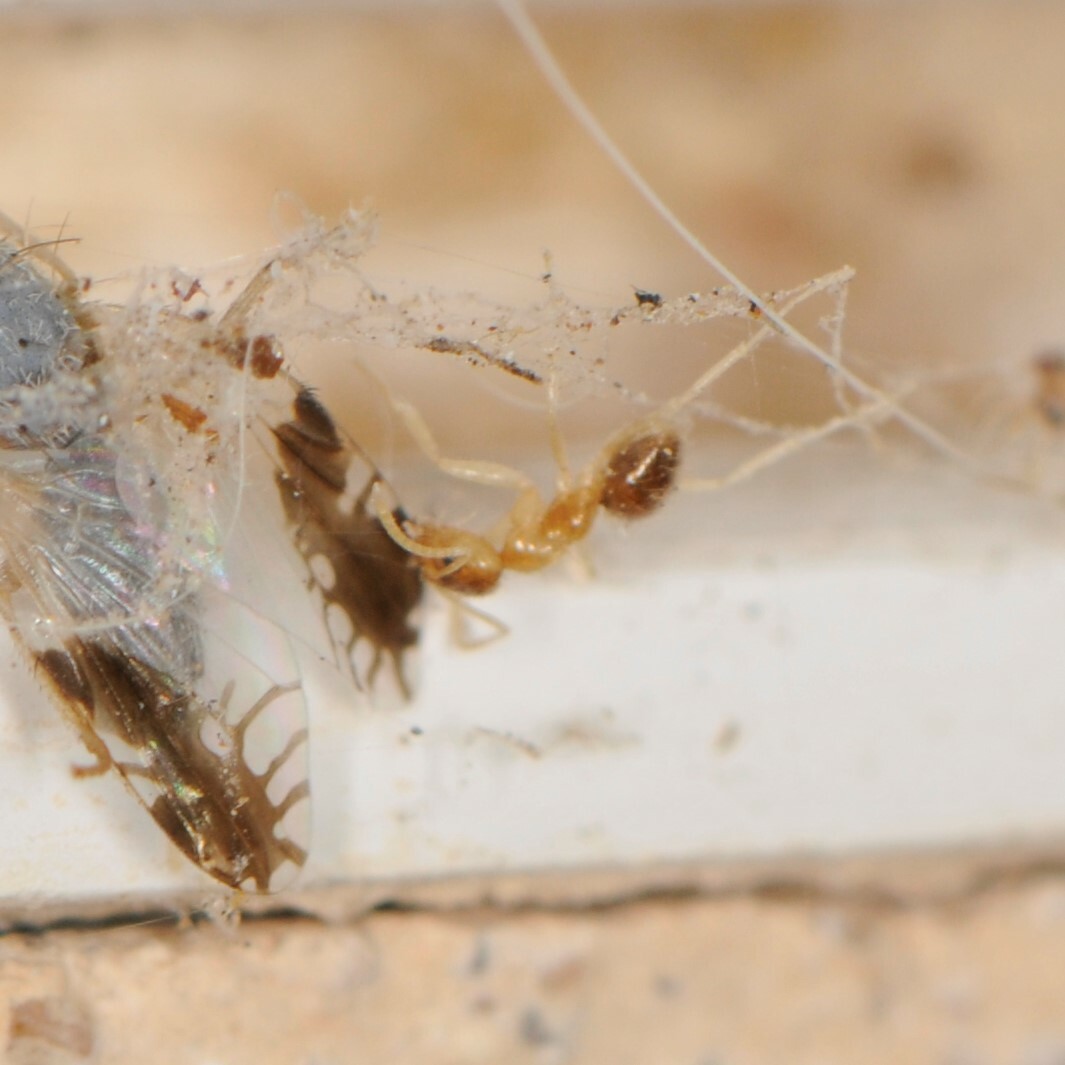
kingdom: Animalia
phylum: Arthropoda
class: Insecta
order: Hymenoptera
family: Formicidae
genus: Nylanderia
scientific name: Nylanderia
